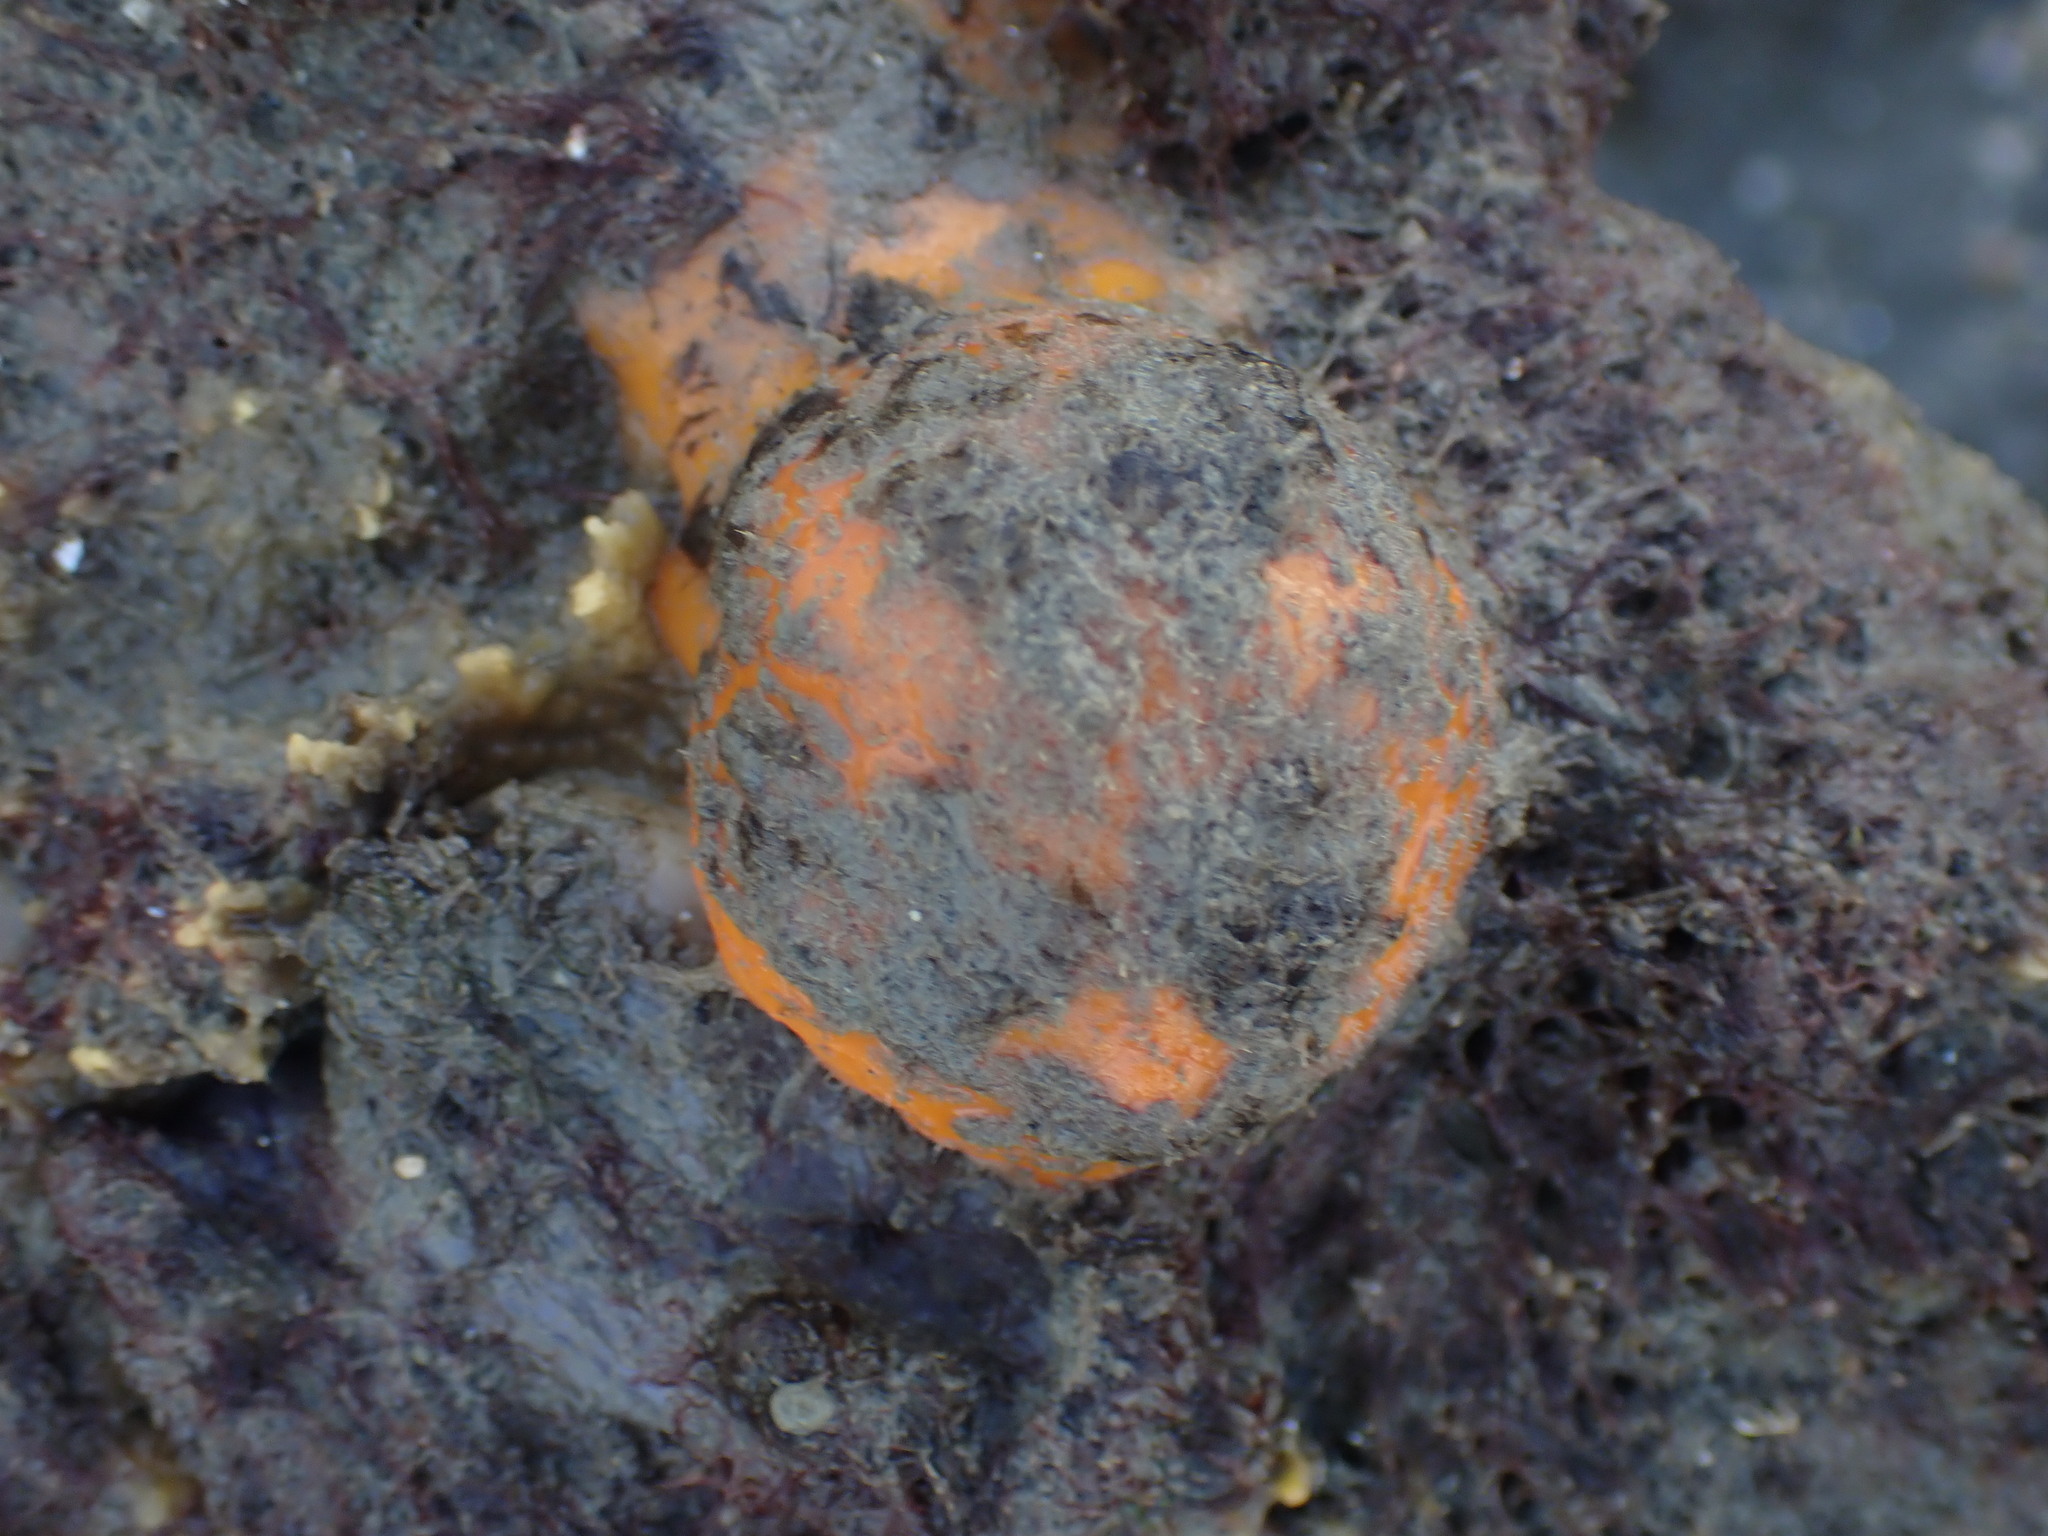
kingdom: Animalia
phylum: Porifera
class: Demospongiae
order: Tethyida
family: Tethyidae
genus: Tethya
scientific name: Tethya burtoni
